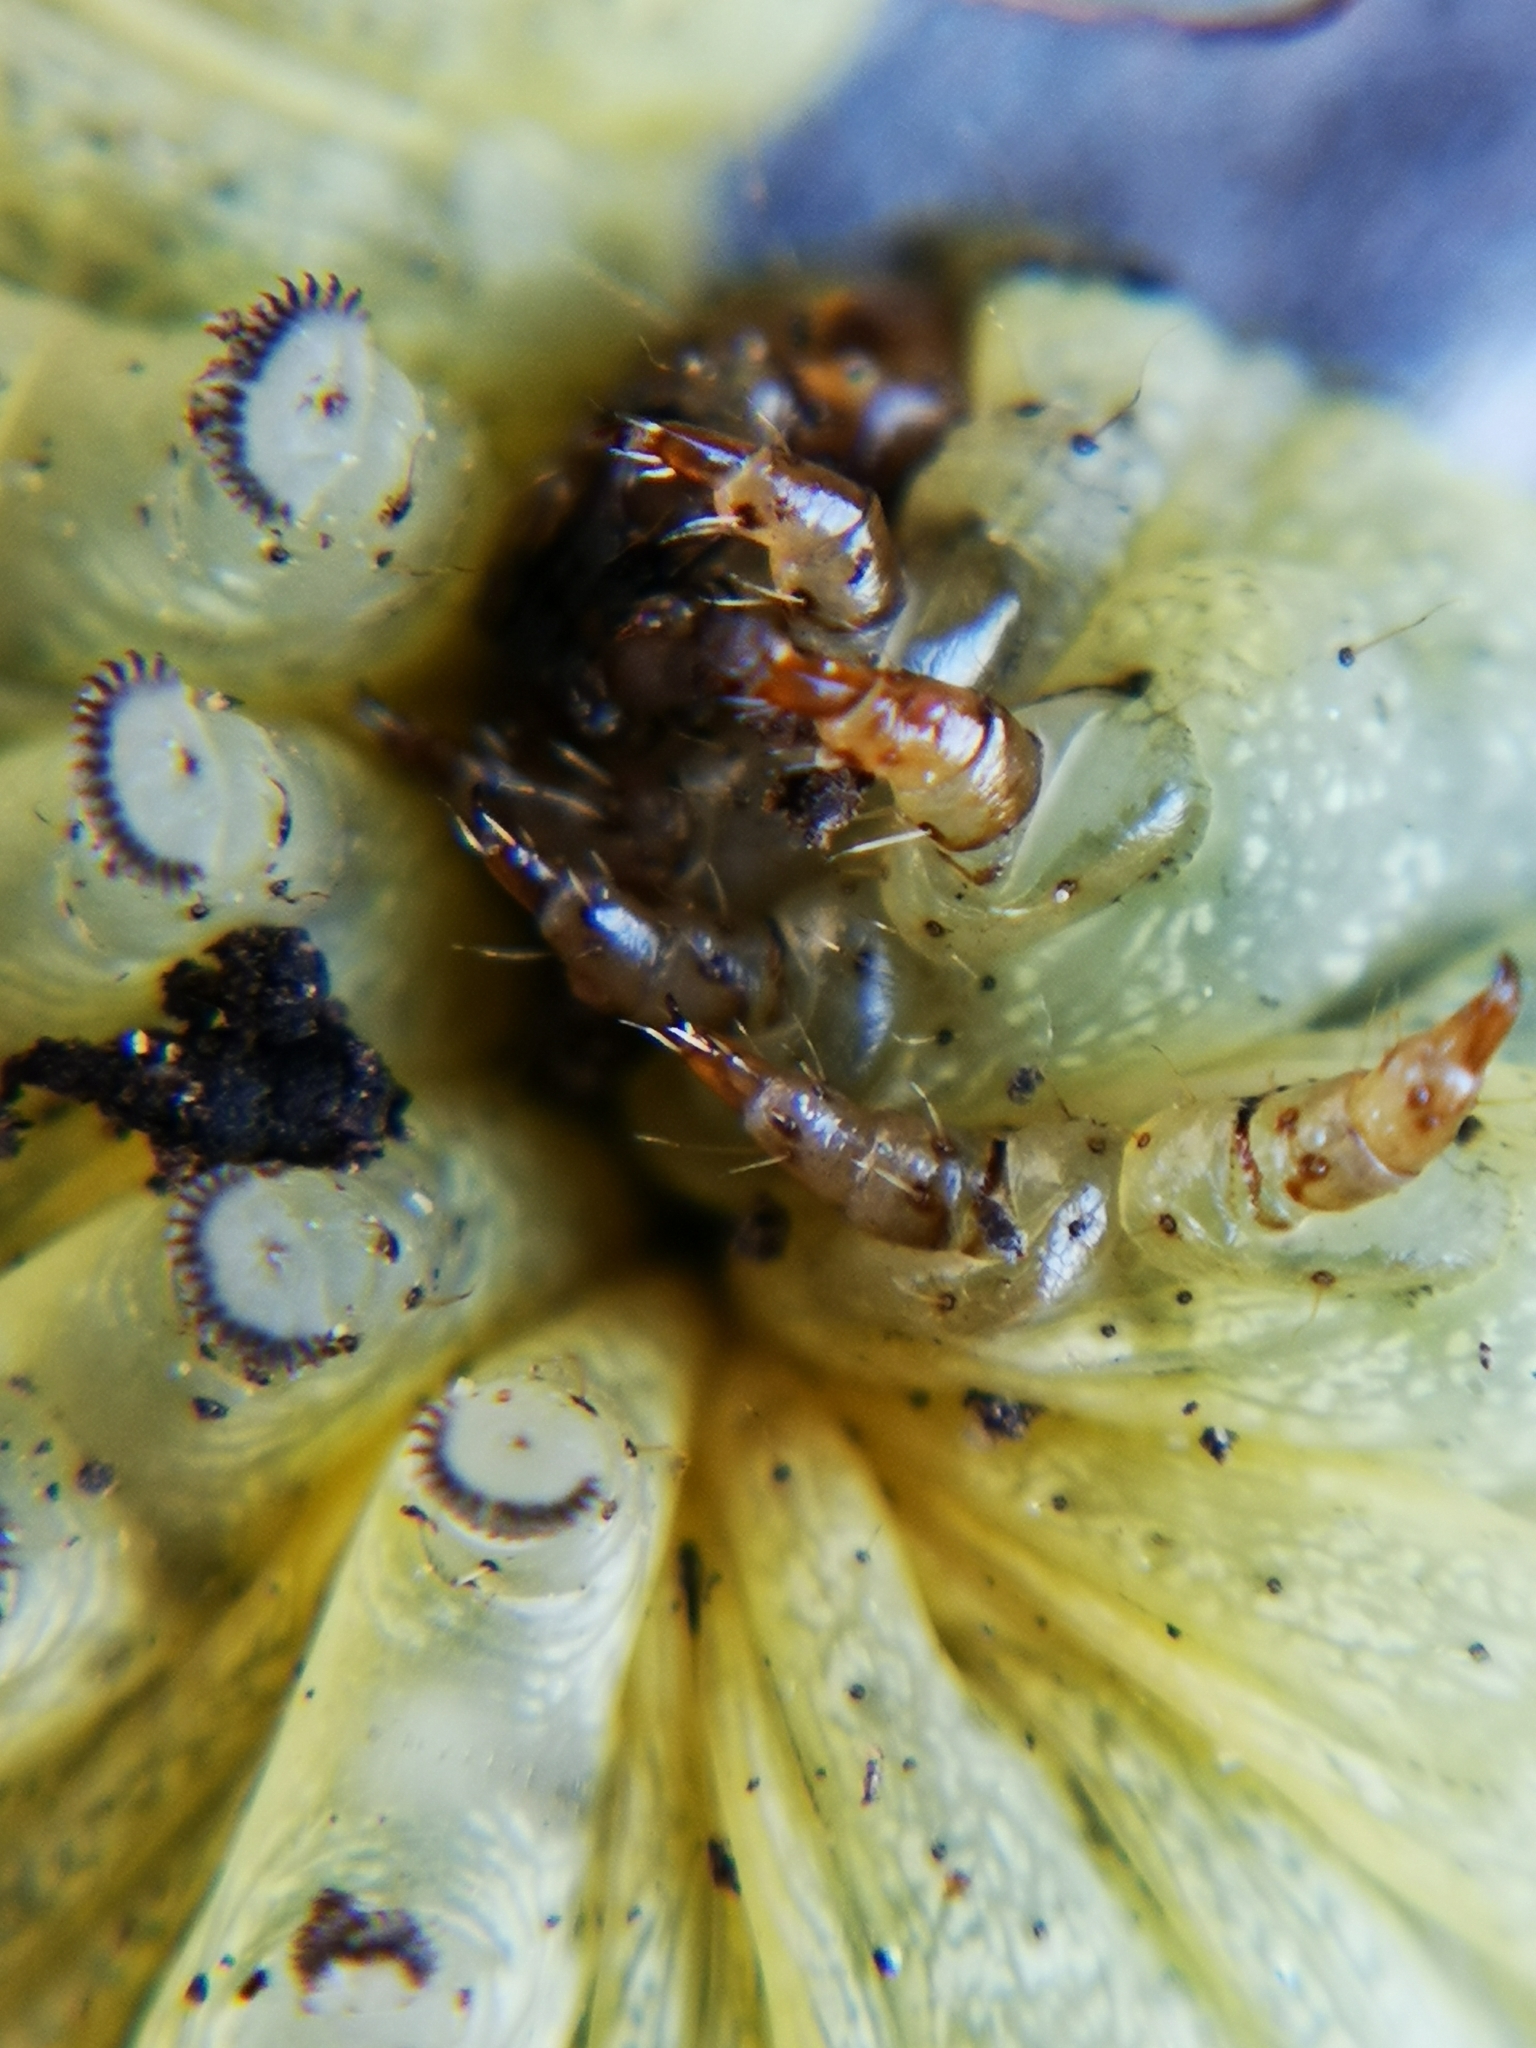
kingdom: Animalia
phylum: Arthropoda
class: Insecta
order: Lepidoptera
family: Noctuidae
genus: Noctua
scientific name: Noctua pronuba
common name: Large yellow underwing
